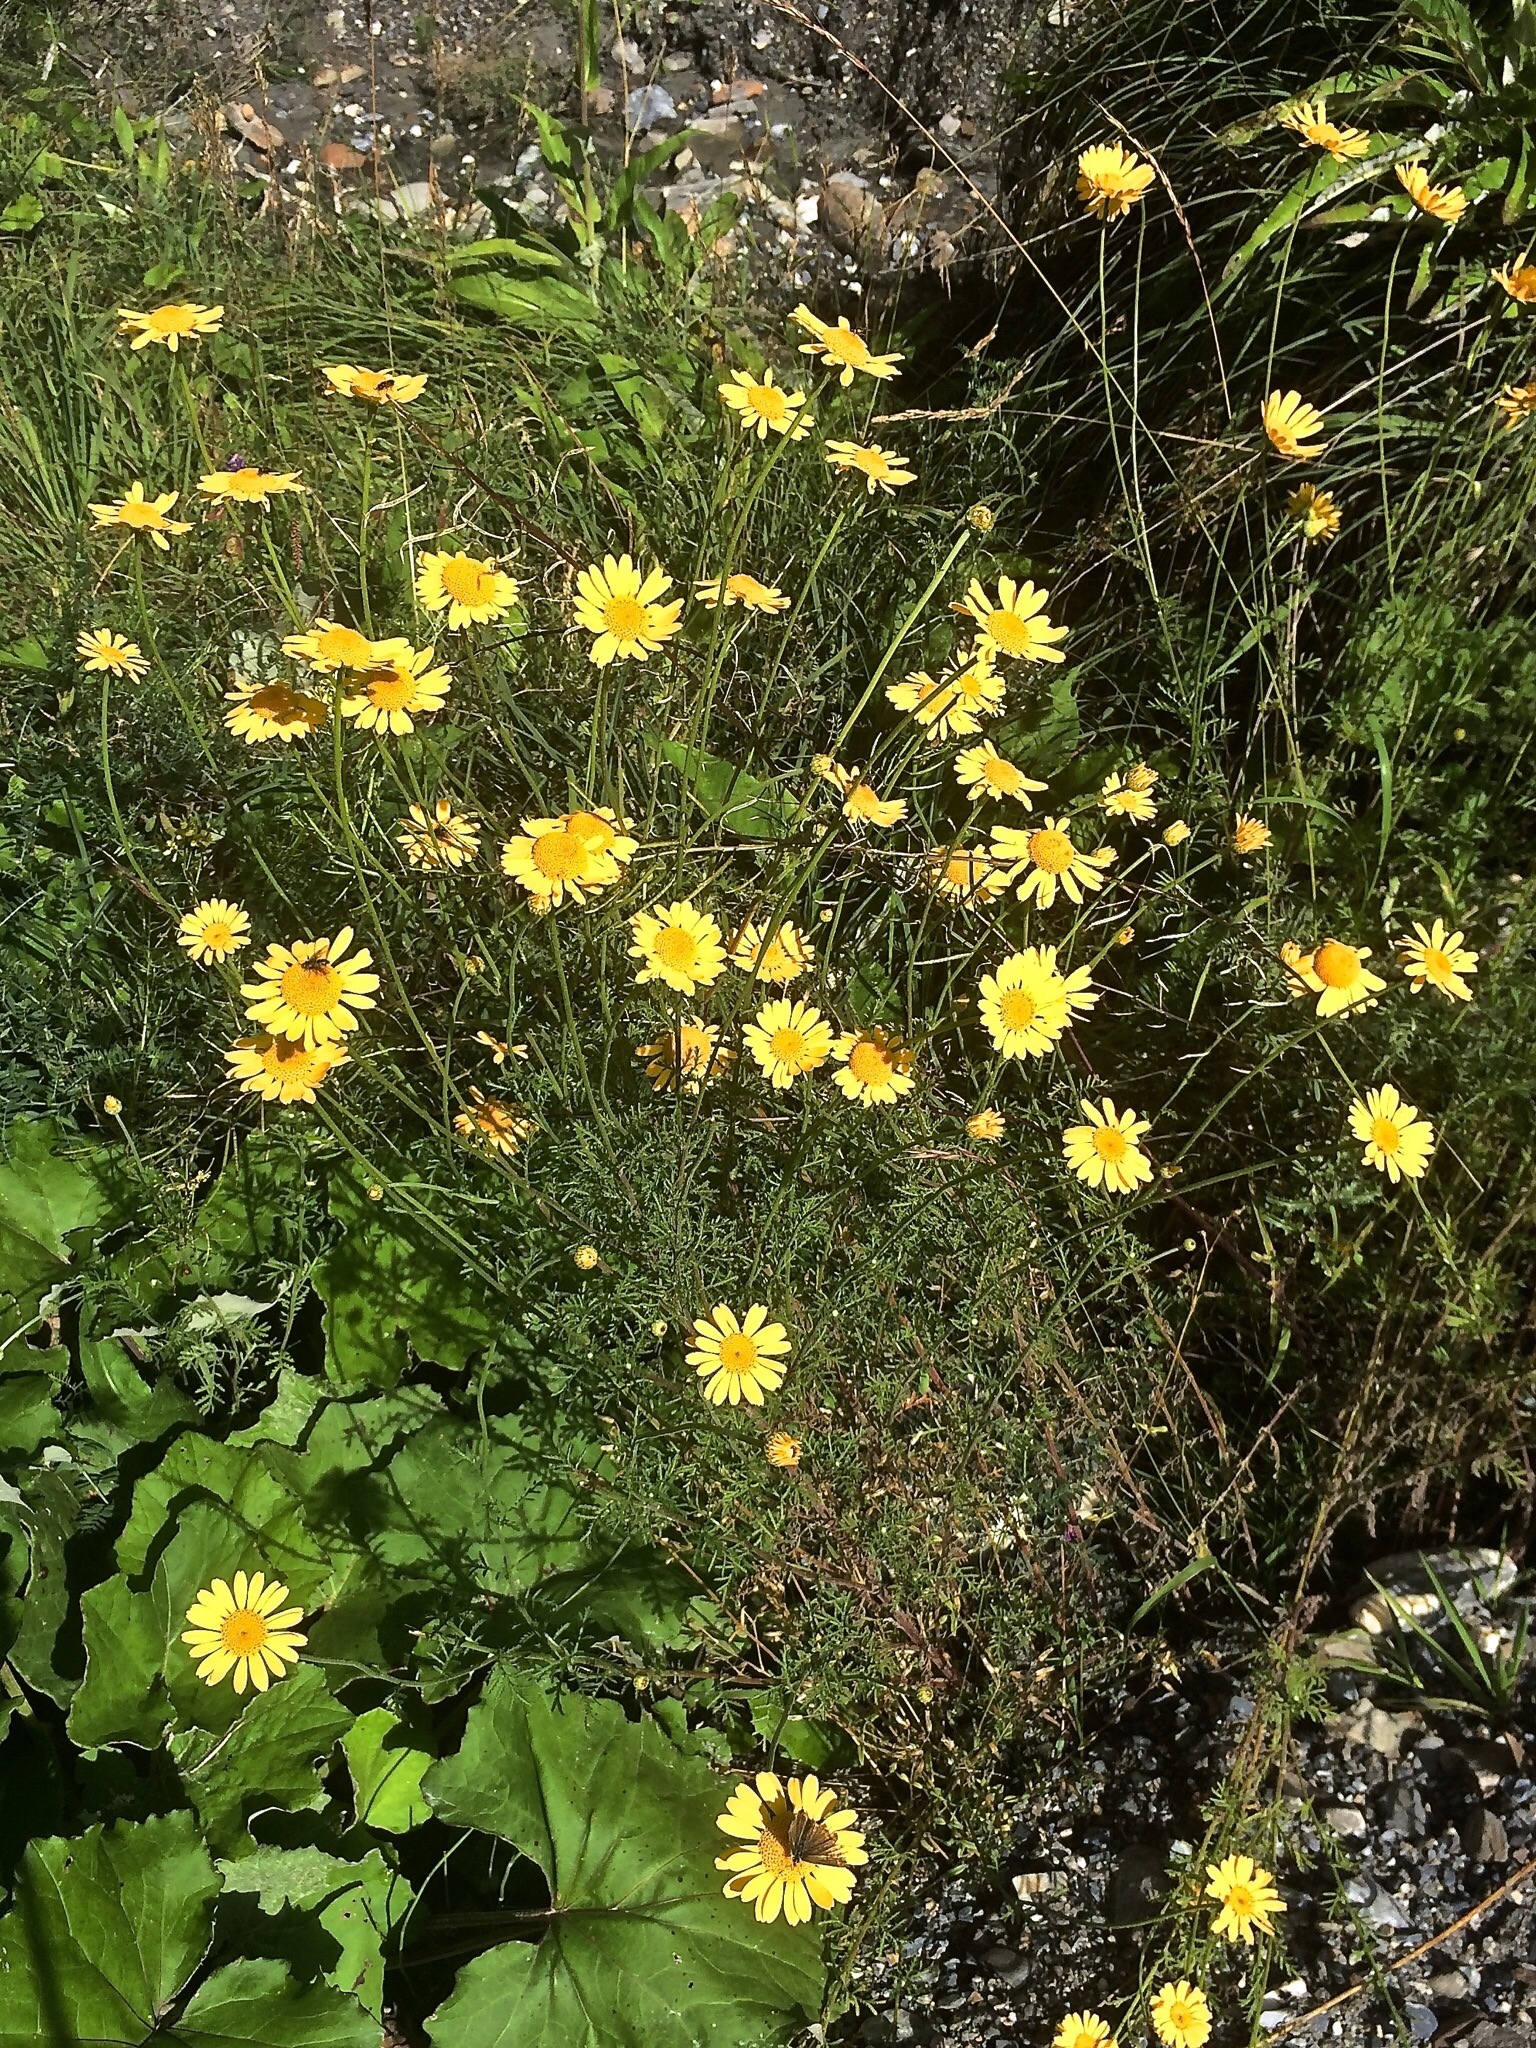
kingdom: Plantae
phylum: Tracheophyta
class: Magnoliopsida
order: Asterales
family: Asteraceae
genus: Cota
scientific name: Cota tinctoria
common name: Golden chamomile
